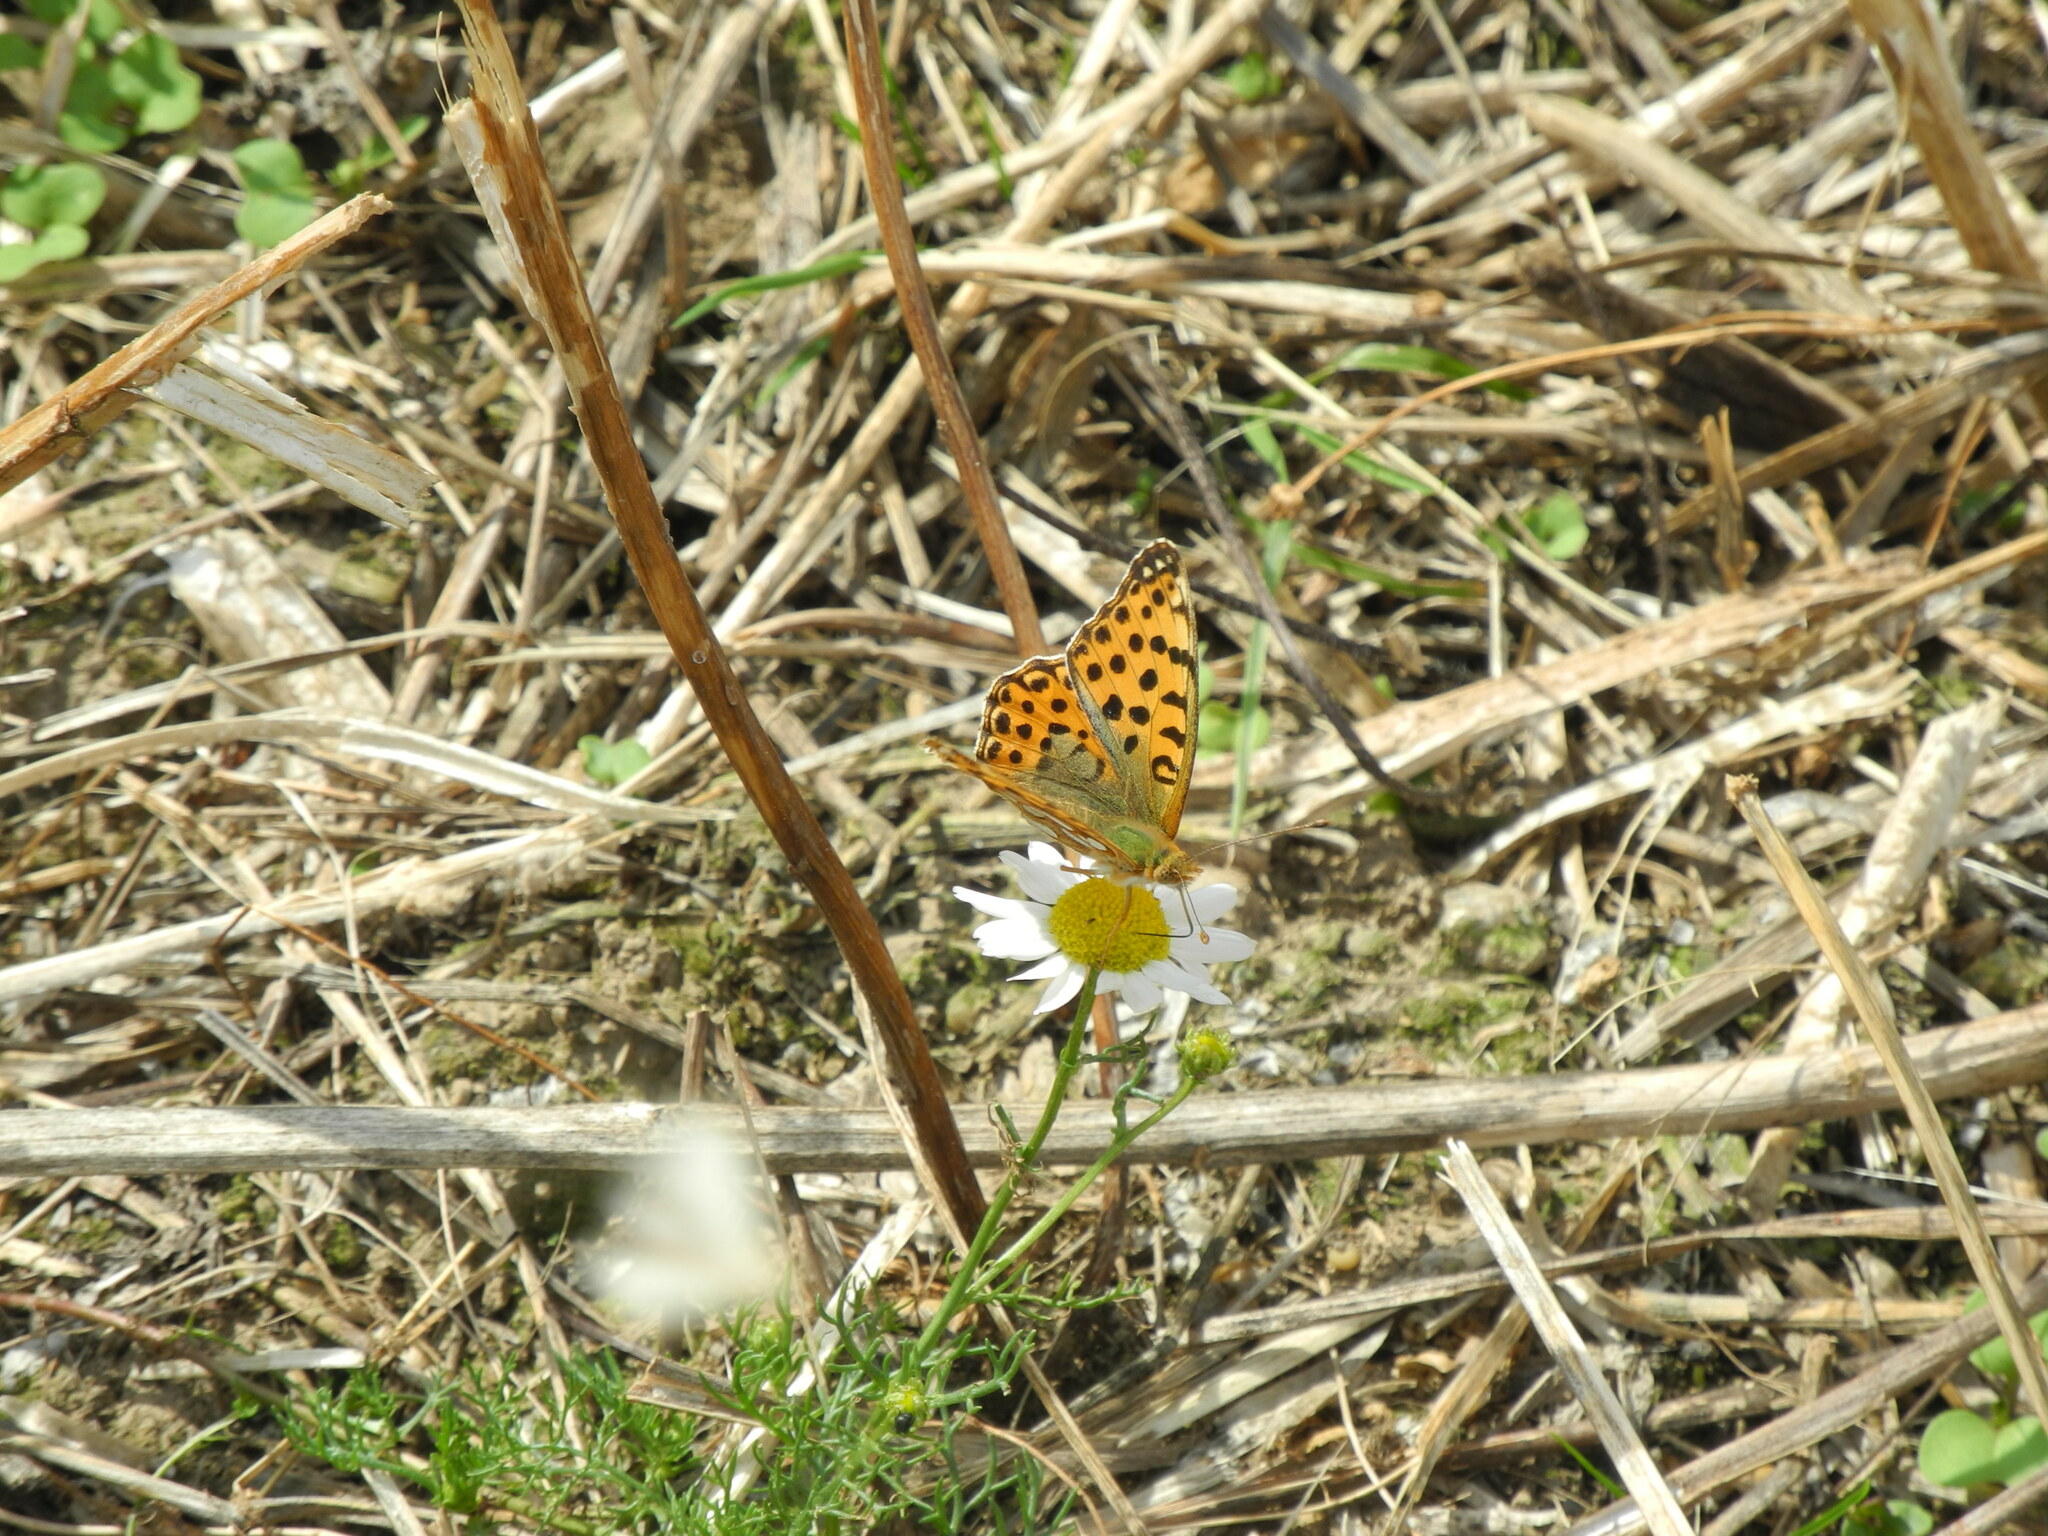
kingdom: Animalia
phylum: Arthropoda
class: Insecta
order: Lepidoptera
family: Nymphalidae
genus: Issoria
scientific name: Issoria lathonia
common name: Queen of spain fritillary
